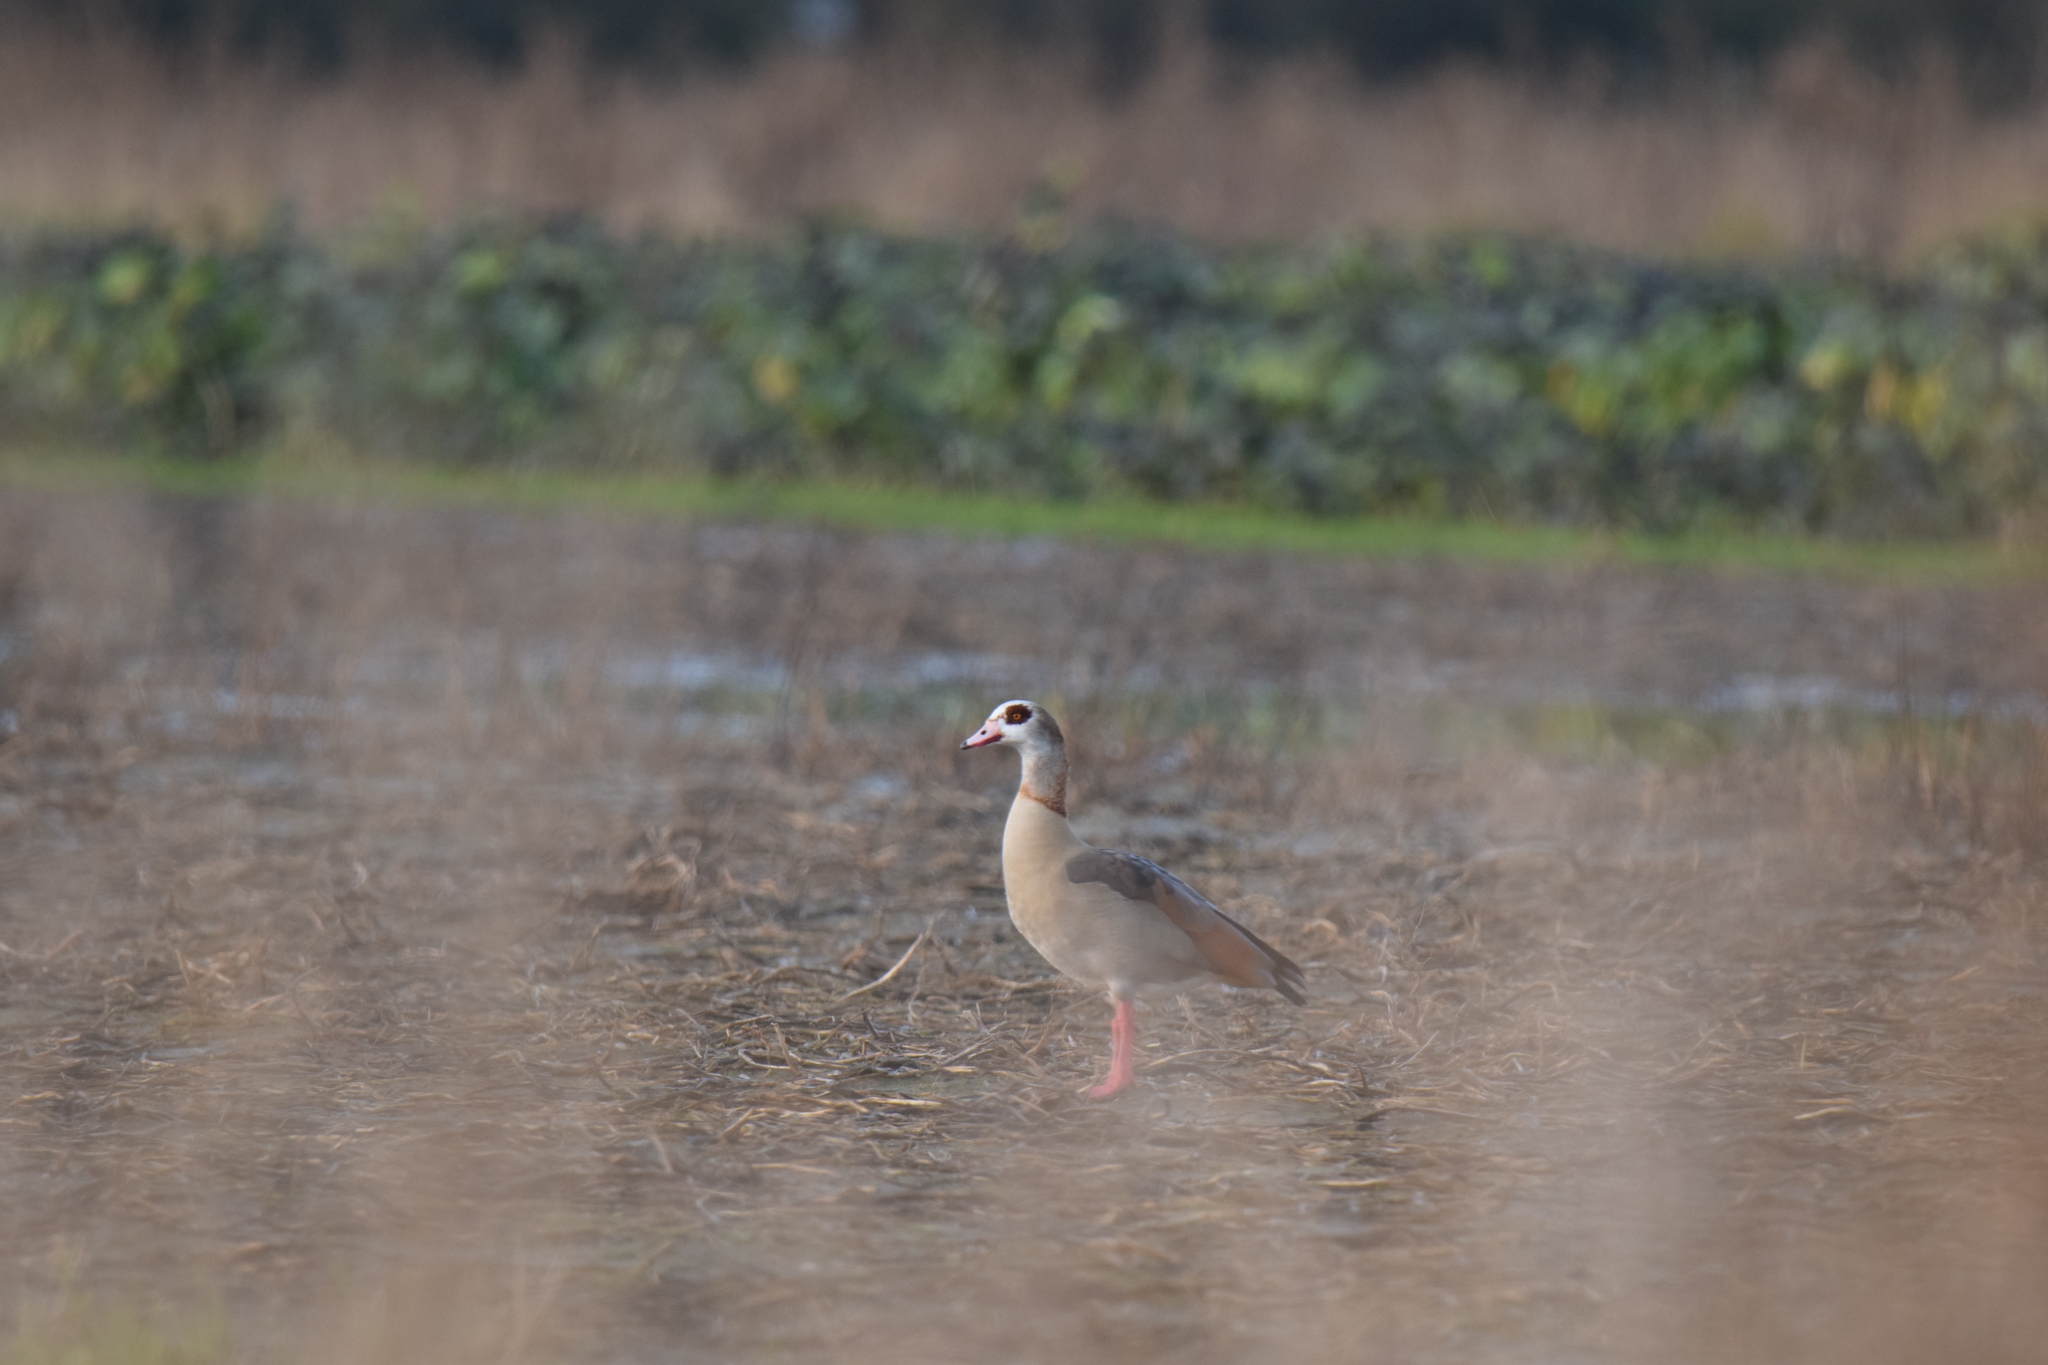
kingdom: Animalia
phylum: Chordata
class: Aves
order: Anseriformes
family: Anatidae
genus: Alopochen
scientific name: Alopochen aegyptiaca
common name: Egyptian goose
